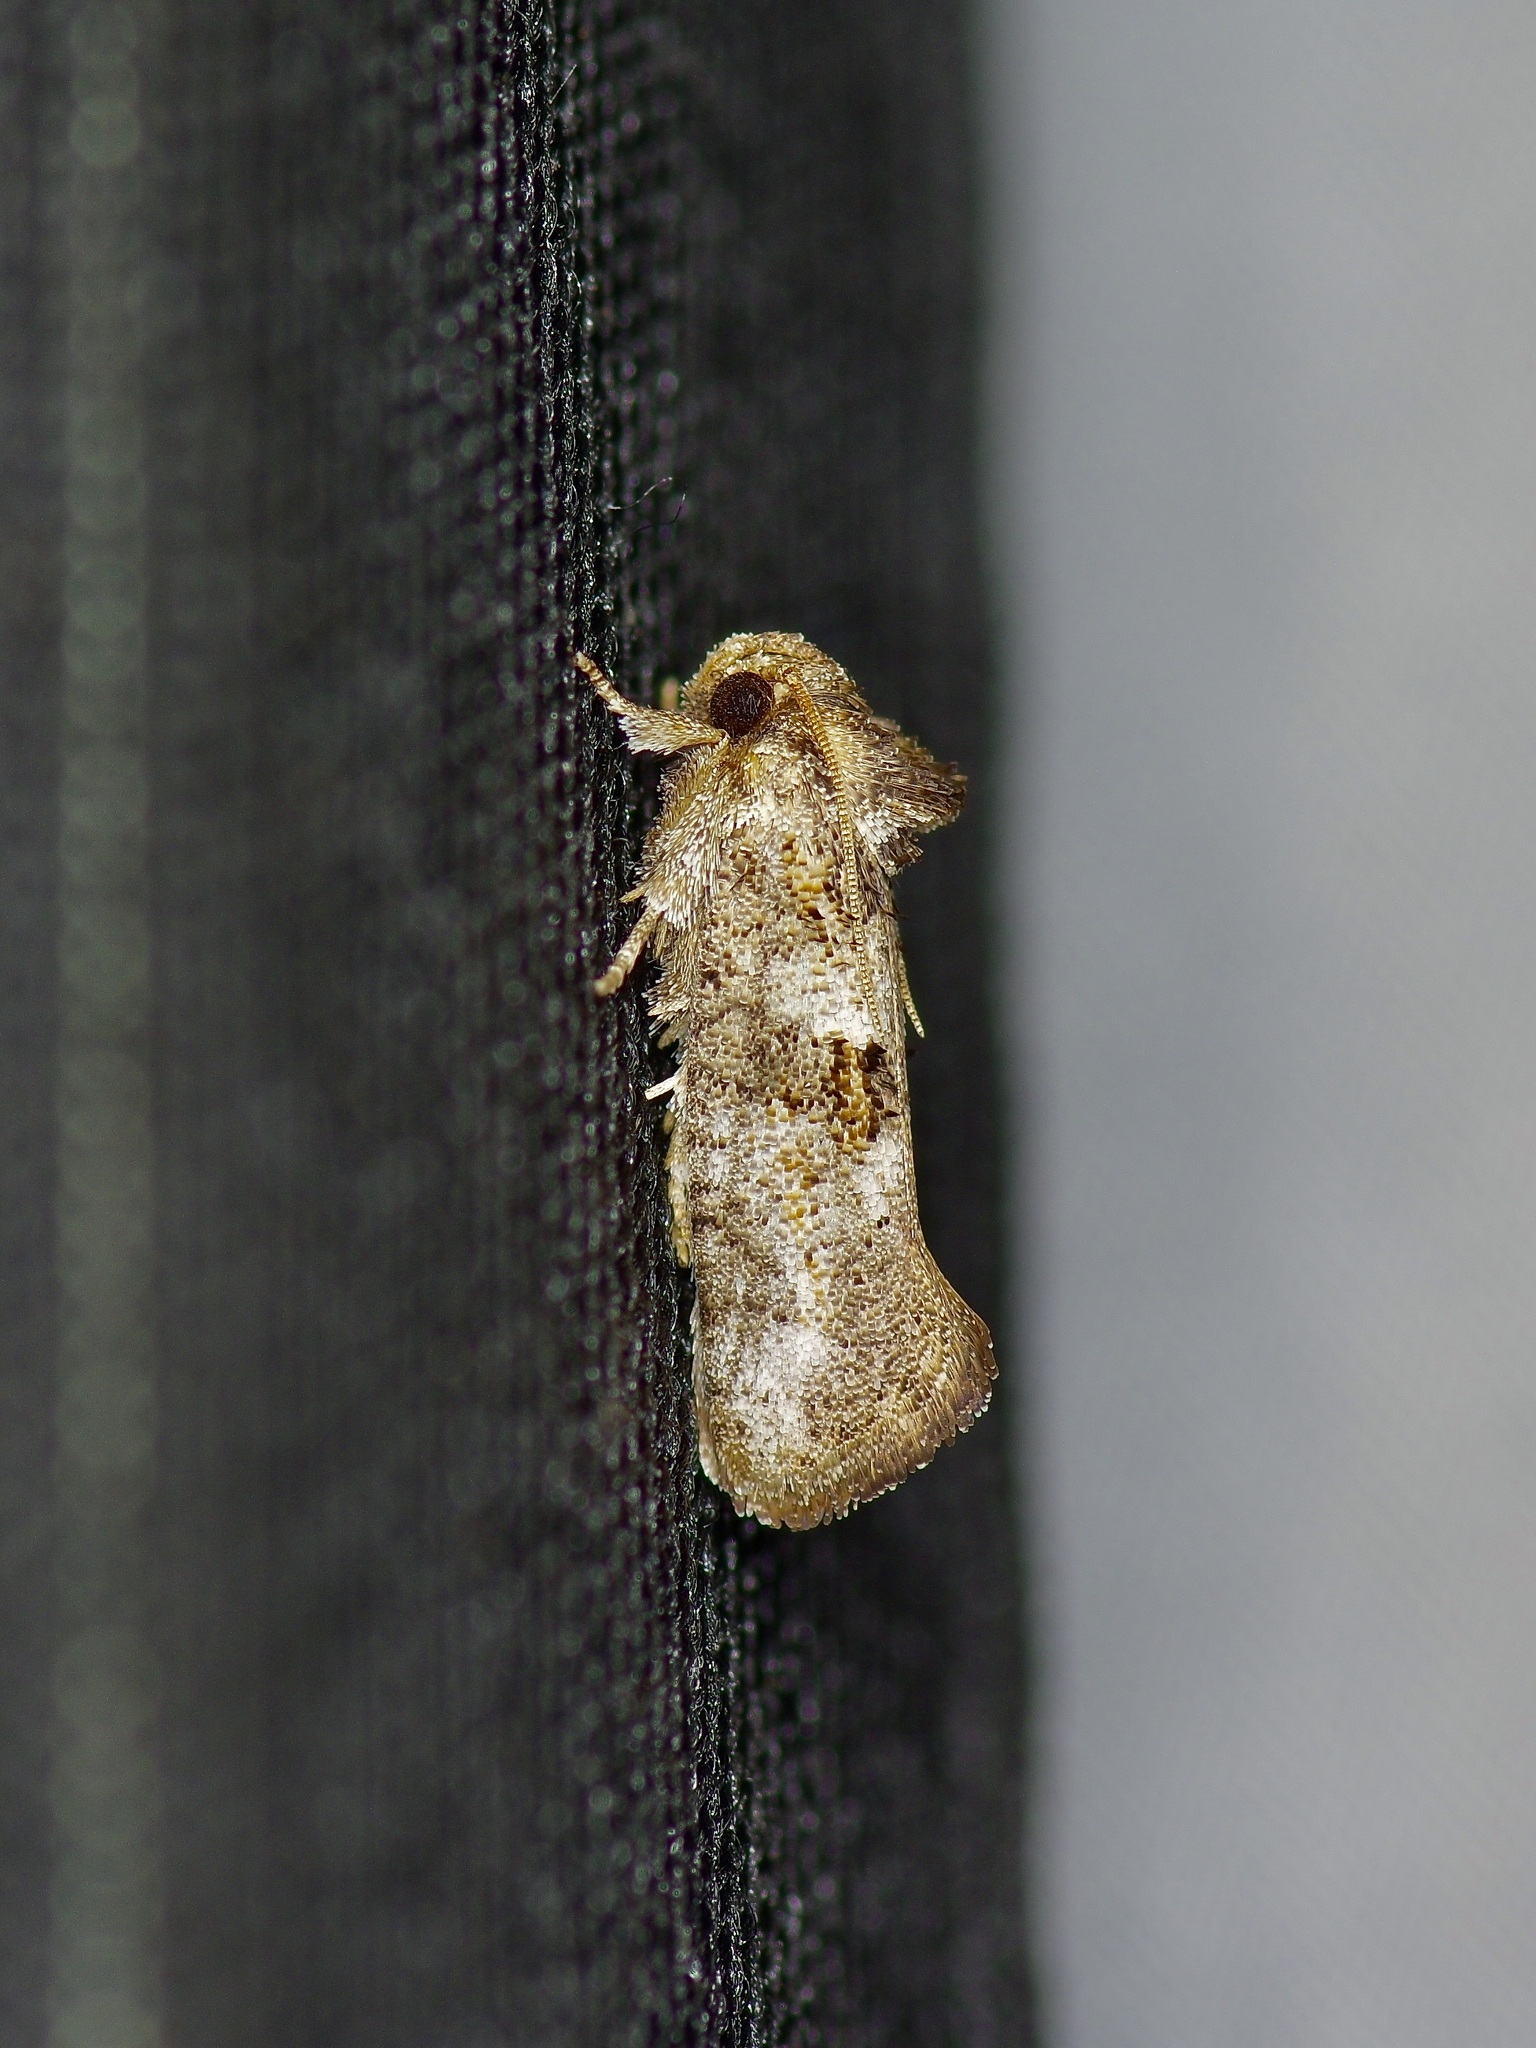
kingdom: Animalia
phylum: Arthropoda
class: Insecta
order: Lepidoptera
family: Tineidae
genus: Acrolophus
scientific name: Acrolophus piger
